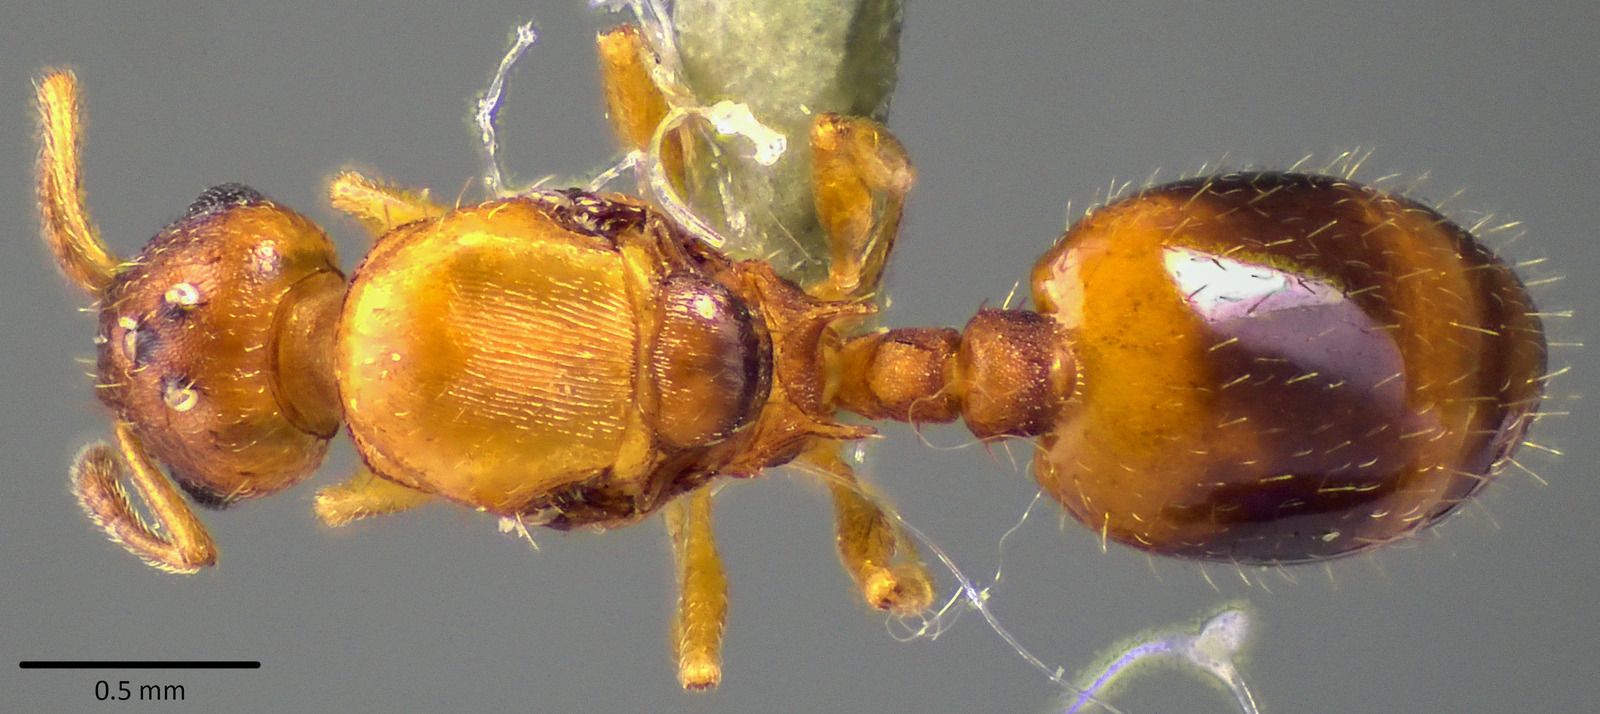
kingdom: Animalia
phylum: Arthropoda
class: Insecta
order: Hymenoptera
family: Formicidae
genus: Temnothorax
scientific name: Temnothorax curvispinosus
